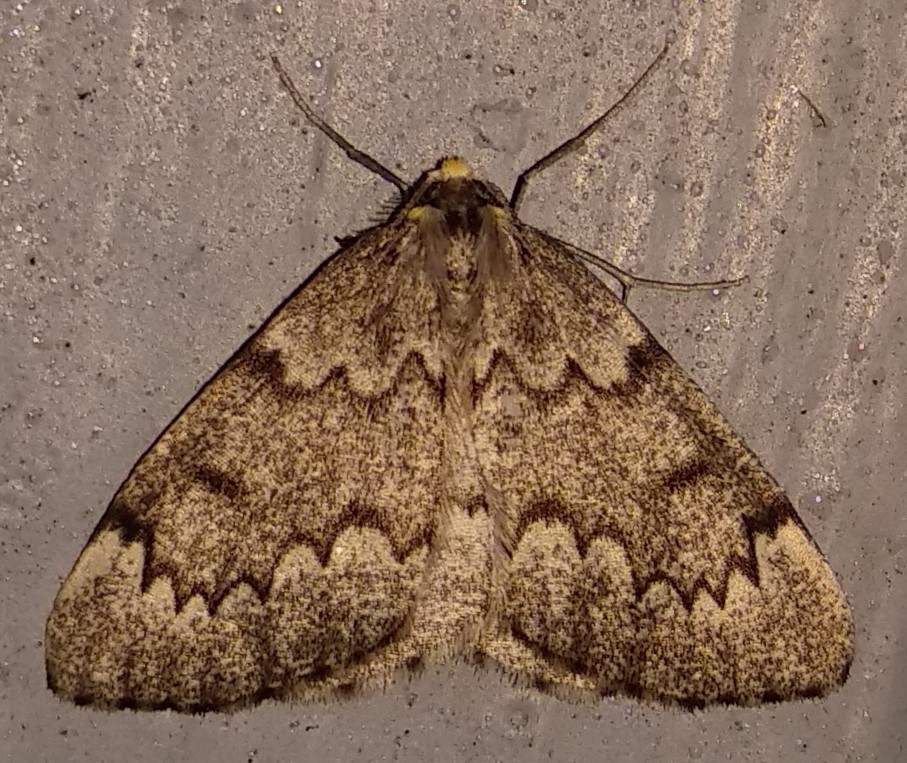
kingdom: Animalia
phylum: Arthropoda
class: Insecta
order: Lepidoptera
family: Geometridae
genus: Nepytia
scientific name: Nepytia canosaria
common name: False hemlock looper
